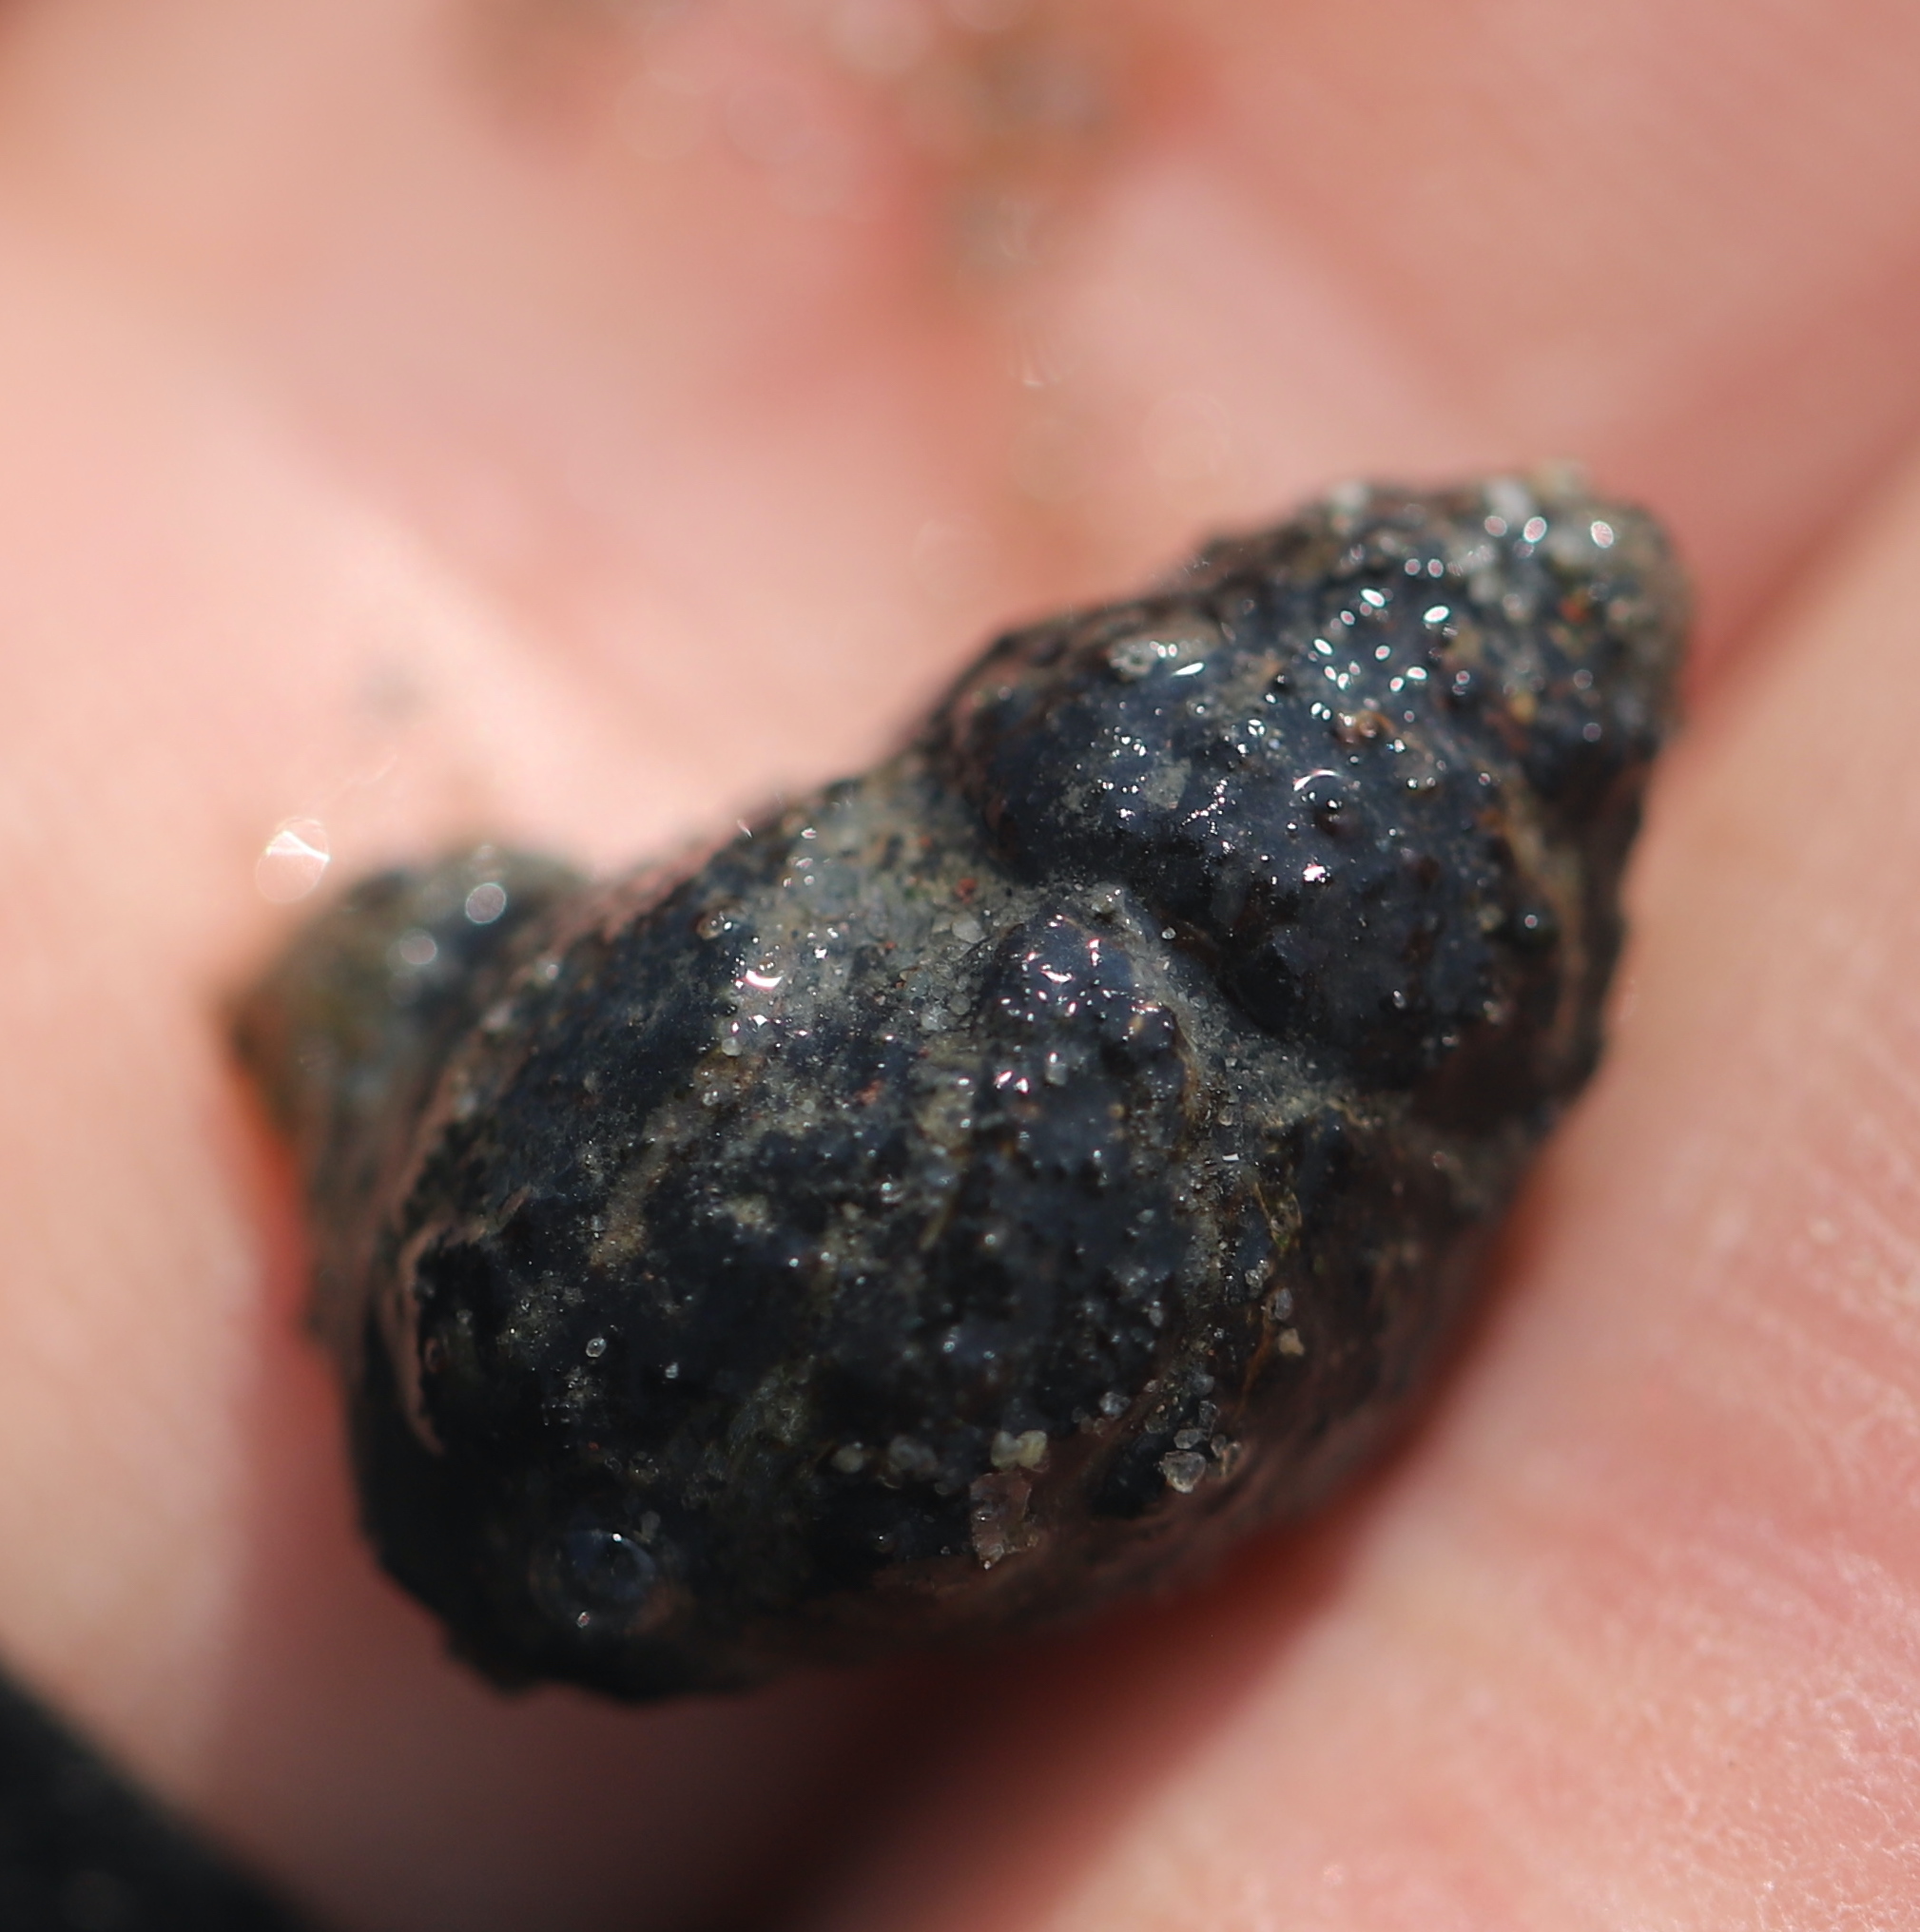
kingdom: Animalia
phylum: Mollusca
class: Gastropoda
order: Neogastropoda
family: Nassariidae
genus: Ilyanassa
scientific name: Ilyanassa obsoleta
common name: Eastern mudsnail
